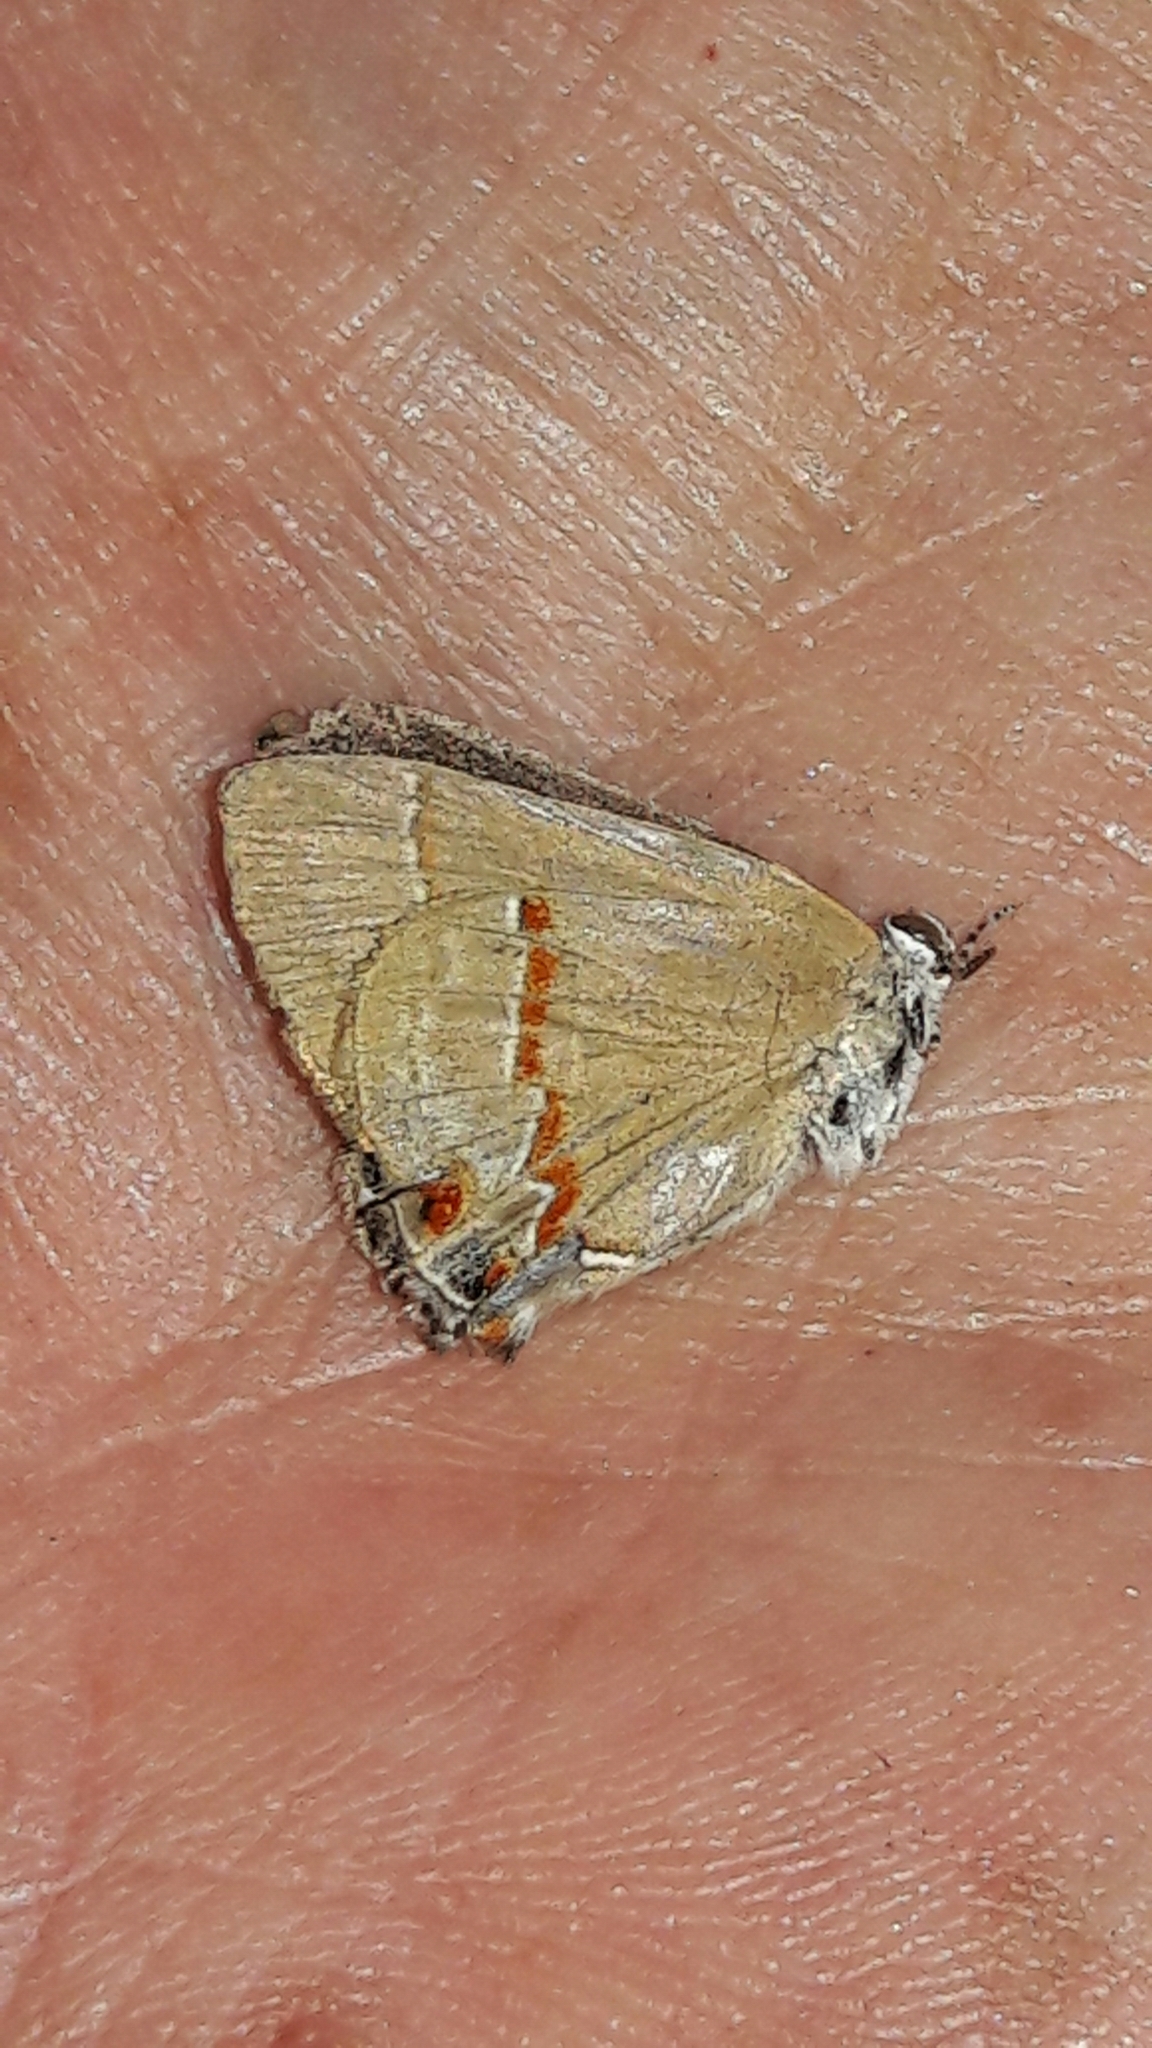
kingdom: Animalia
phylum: Arthropoda
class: Insecta
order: Lepidoptera
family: Lycaenidae
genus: Thecla
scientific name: Thecla syllis
